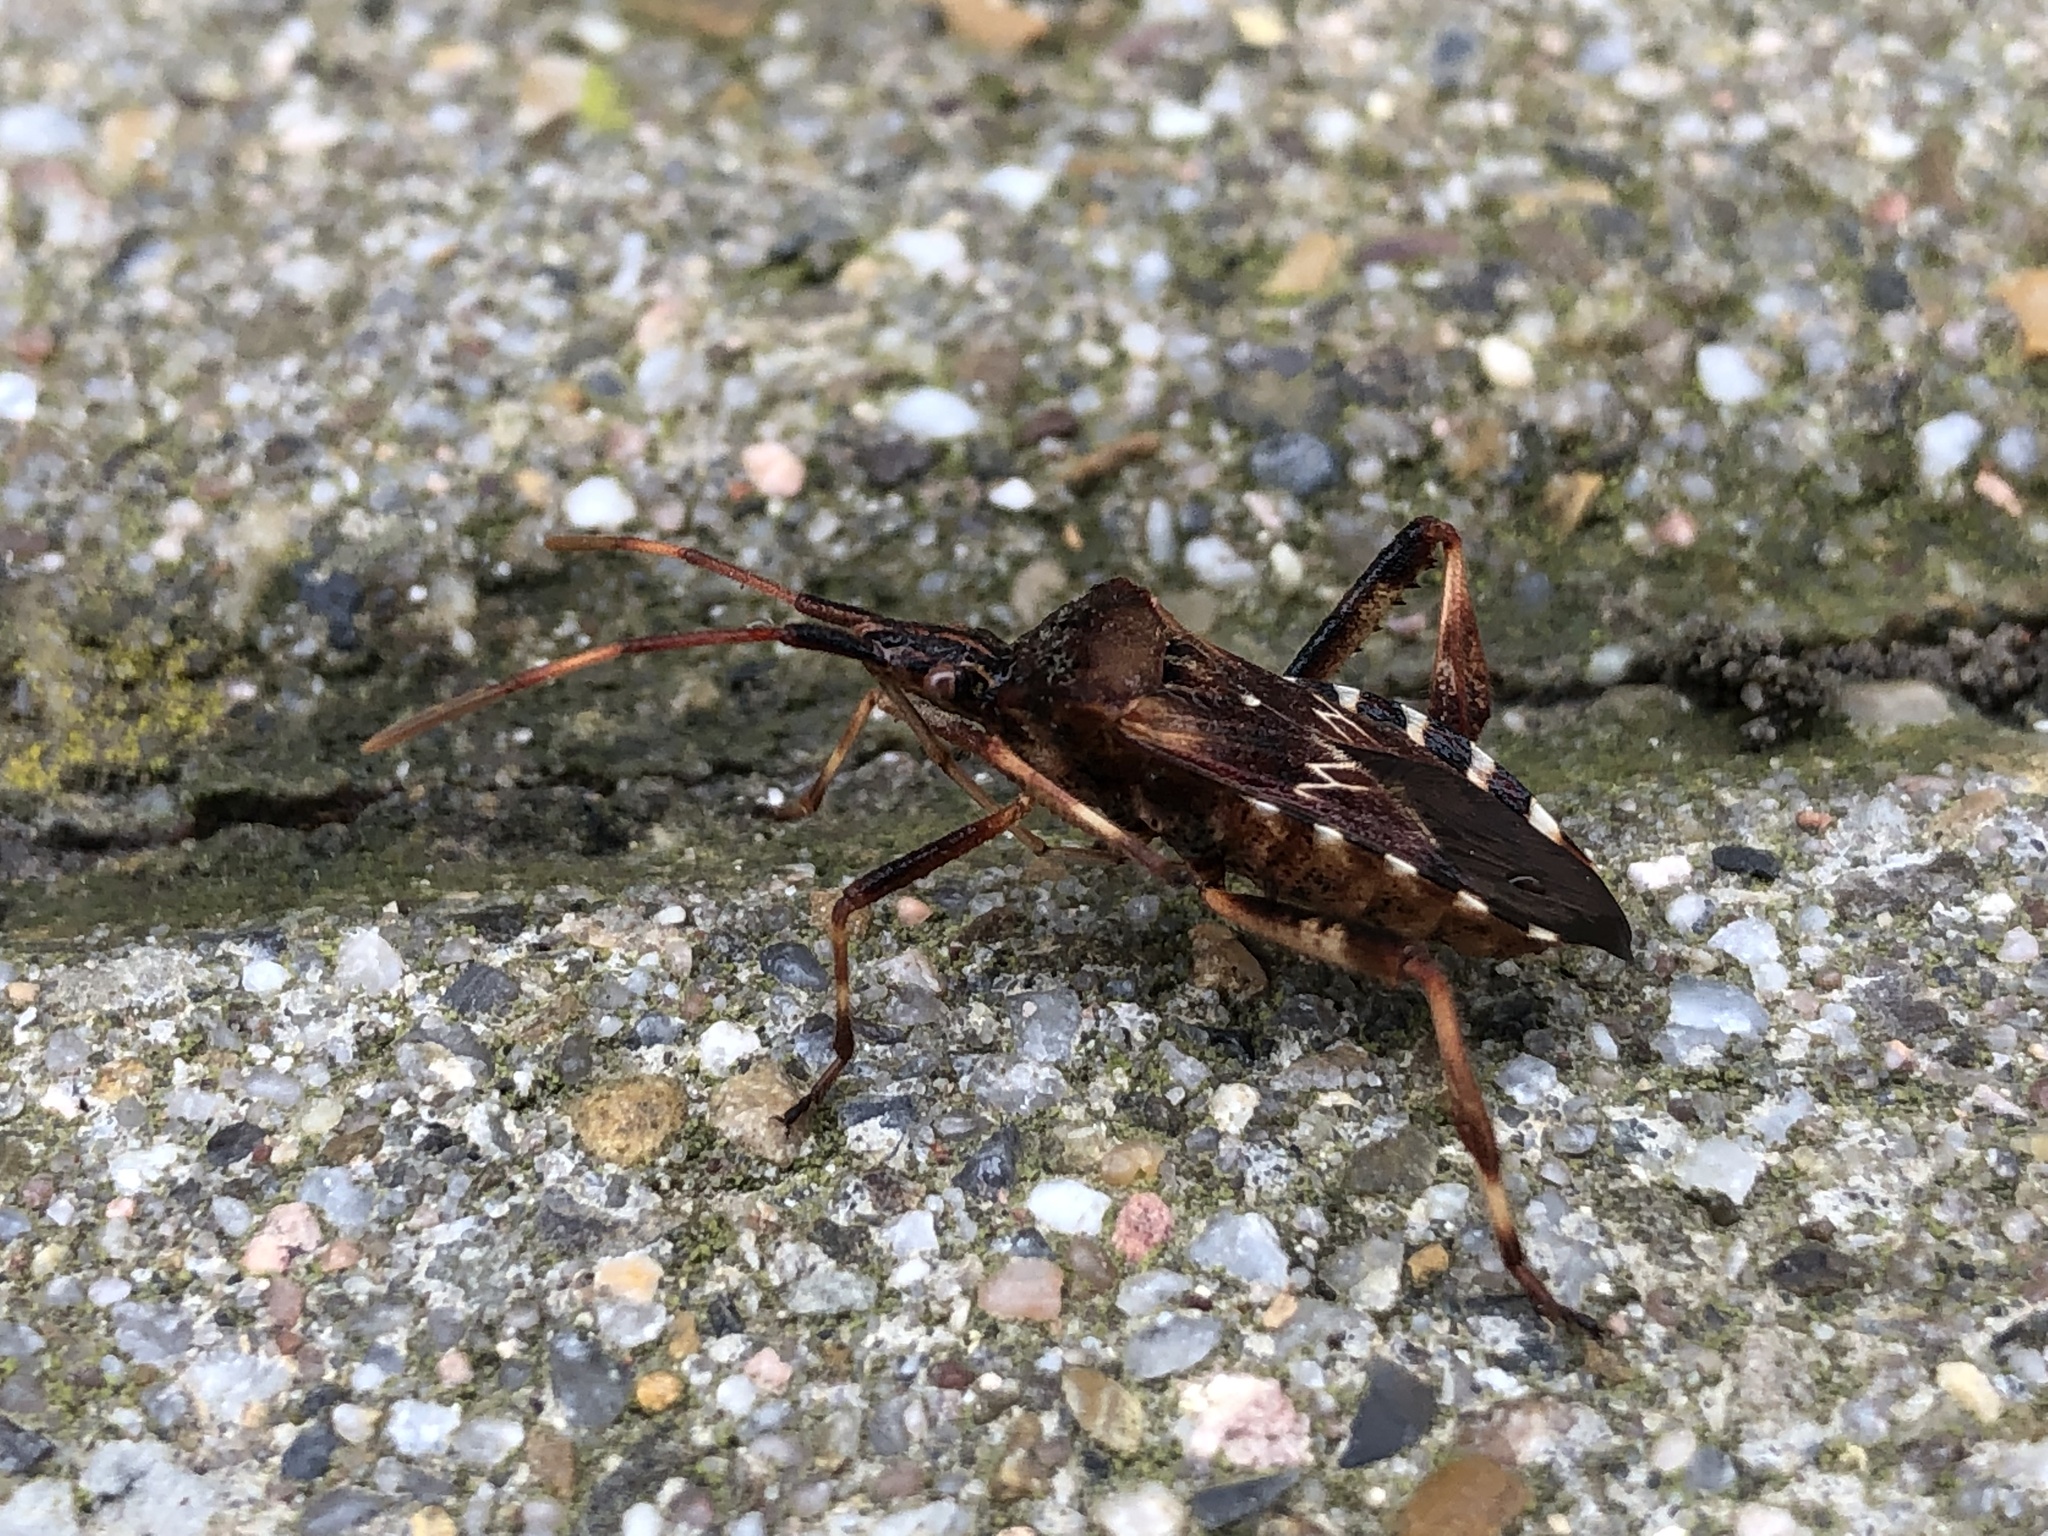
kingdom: Animalia
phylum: Arthropoda
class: Insecta
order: Hemiptera
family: Coreidae
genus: Leptoglossus
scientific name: Leptoglossus occidentalis
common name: Western conifer-seed bug
